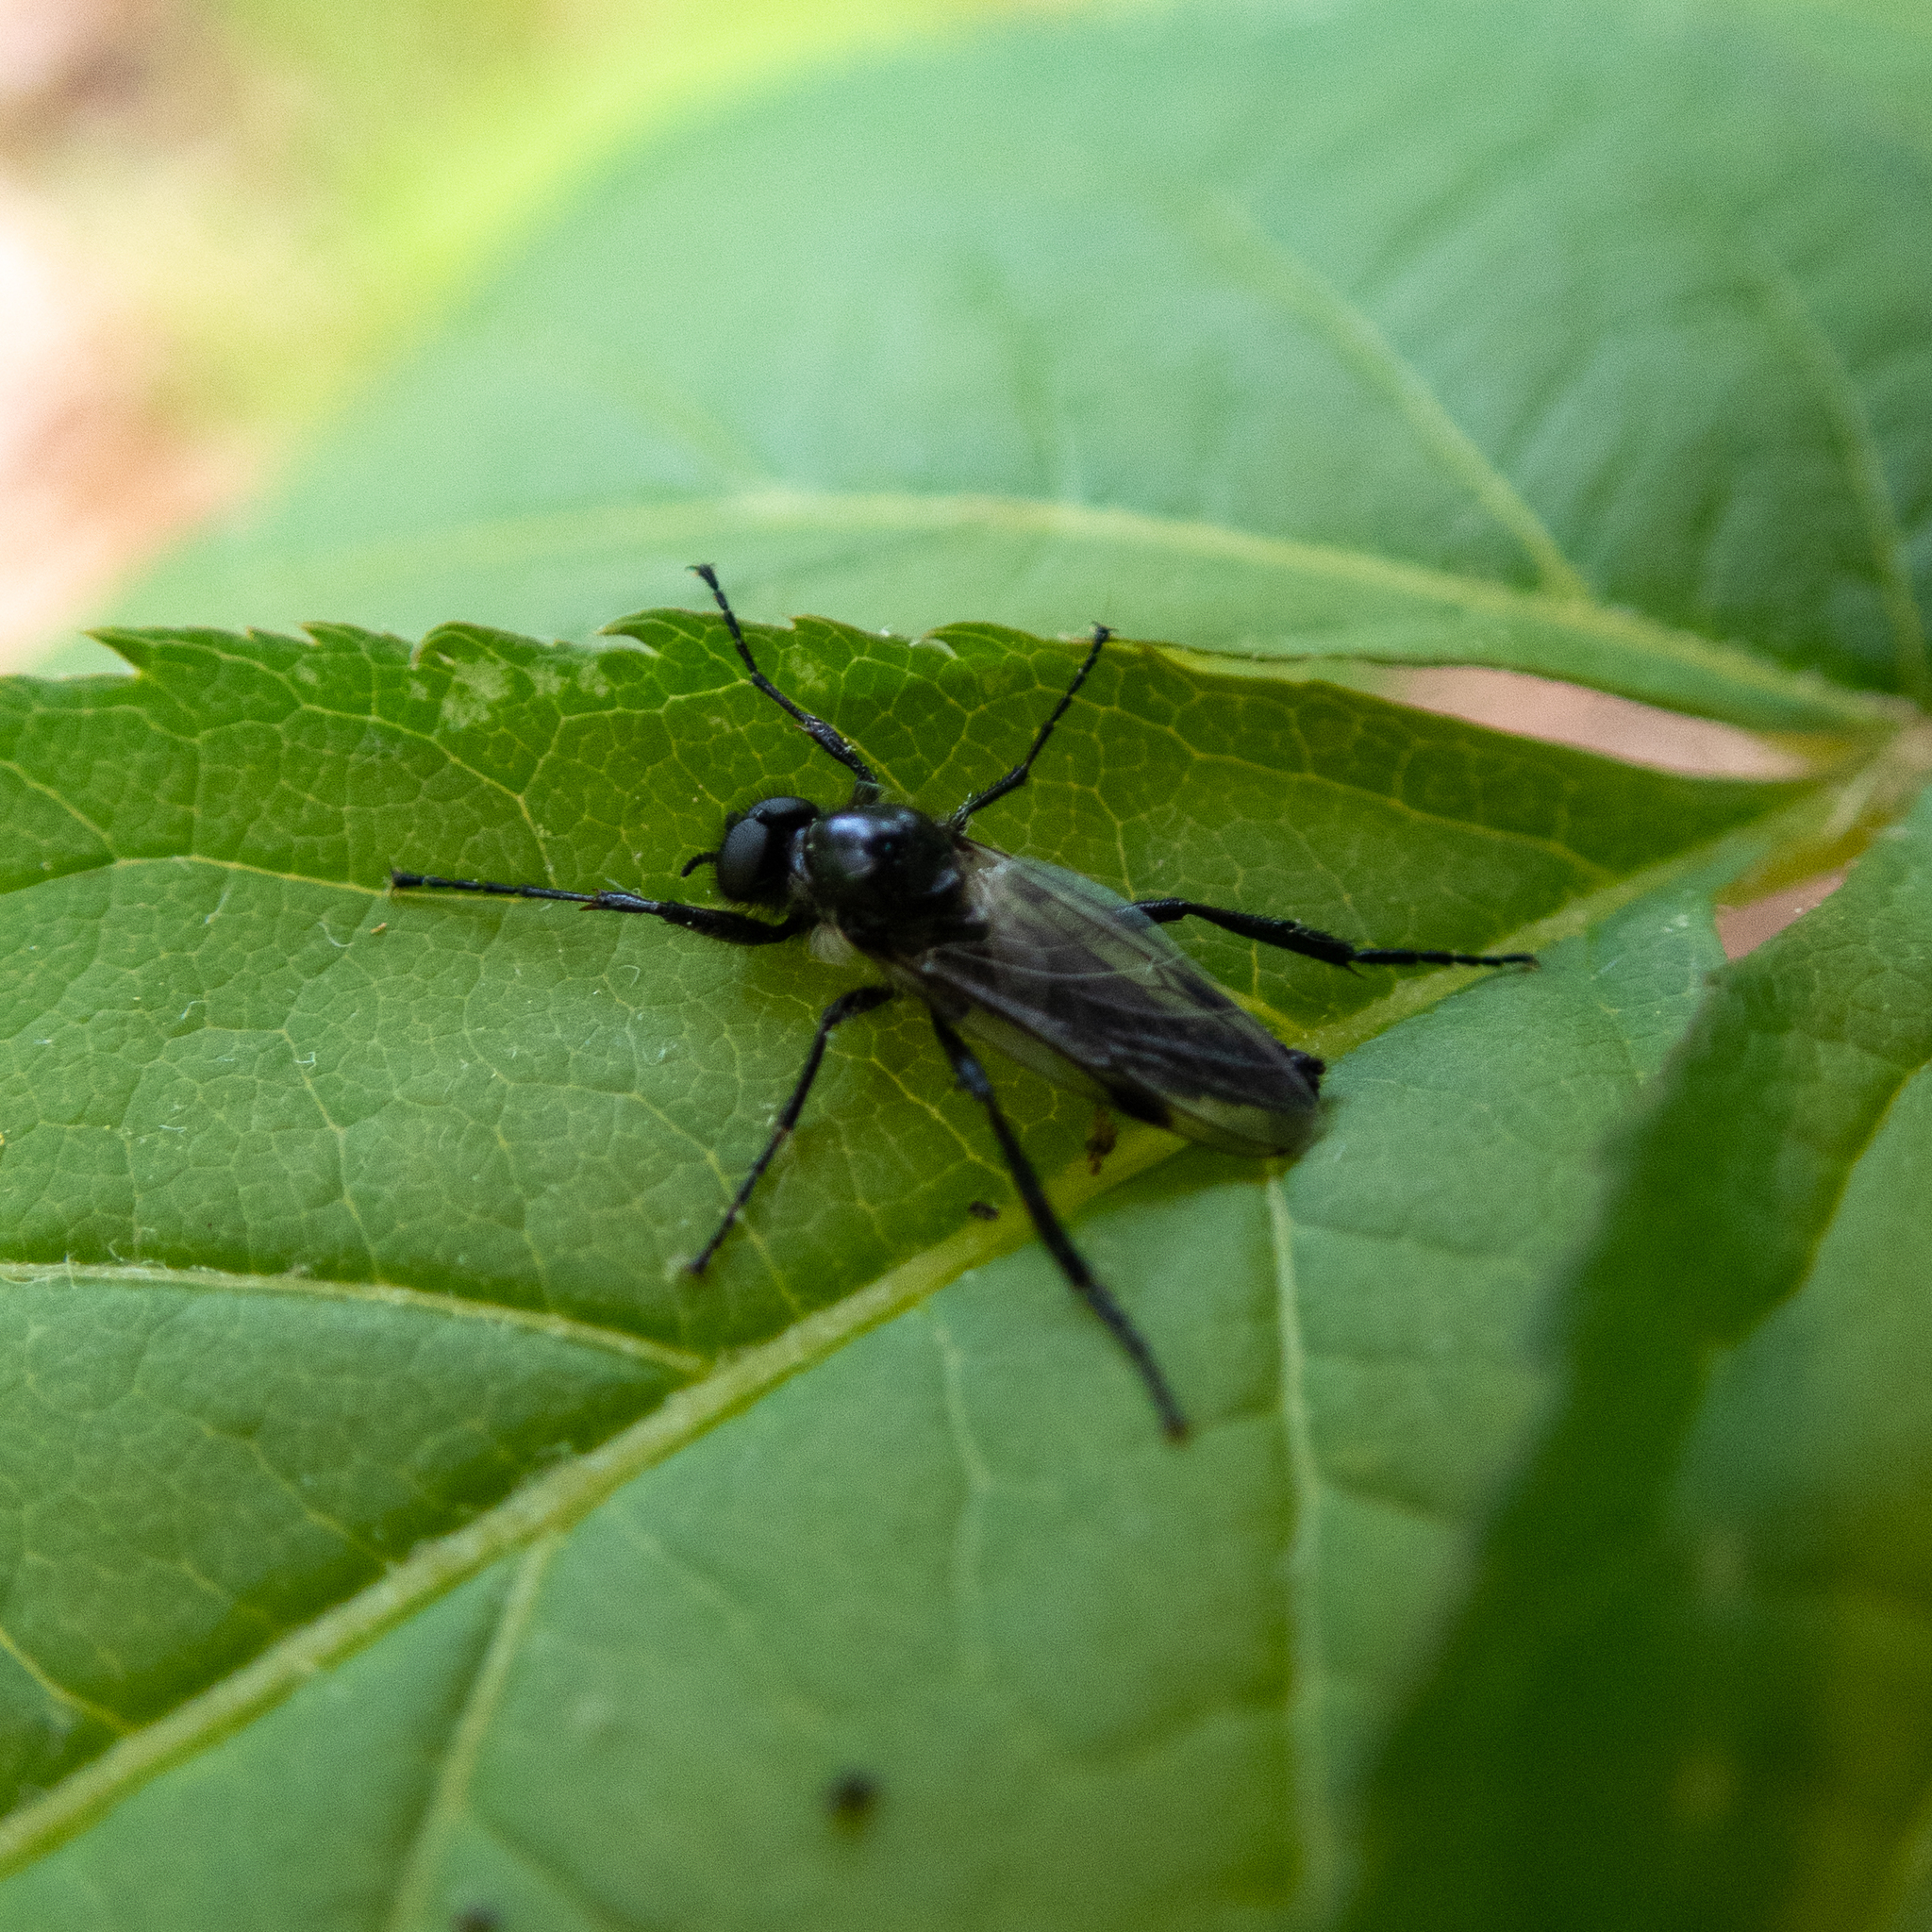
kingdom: Animalia
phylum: Arthropoda
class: Insecta
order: Diptera
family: Bibionidae
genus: Bibio
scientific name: Bibio vestitus
